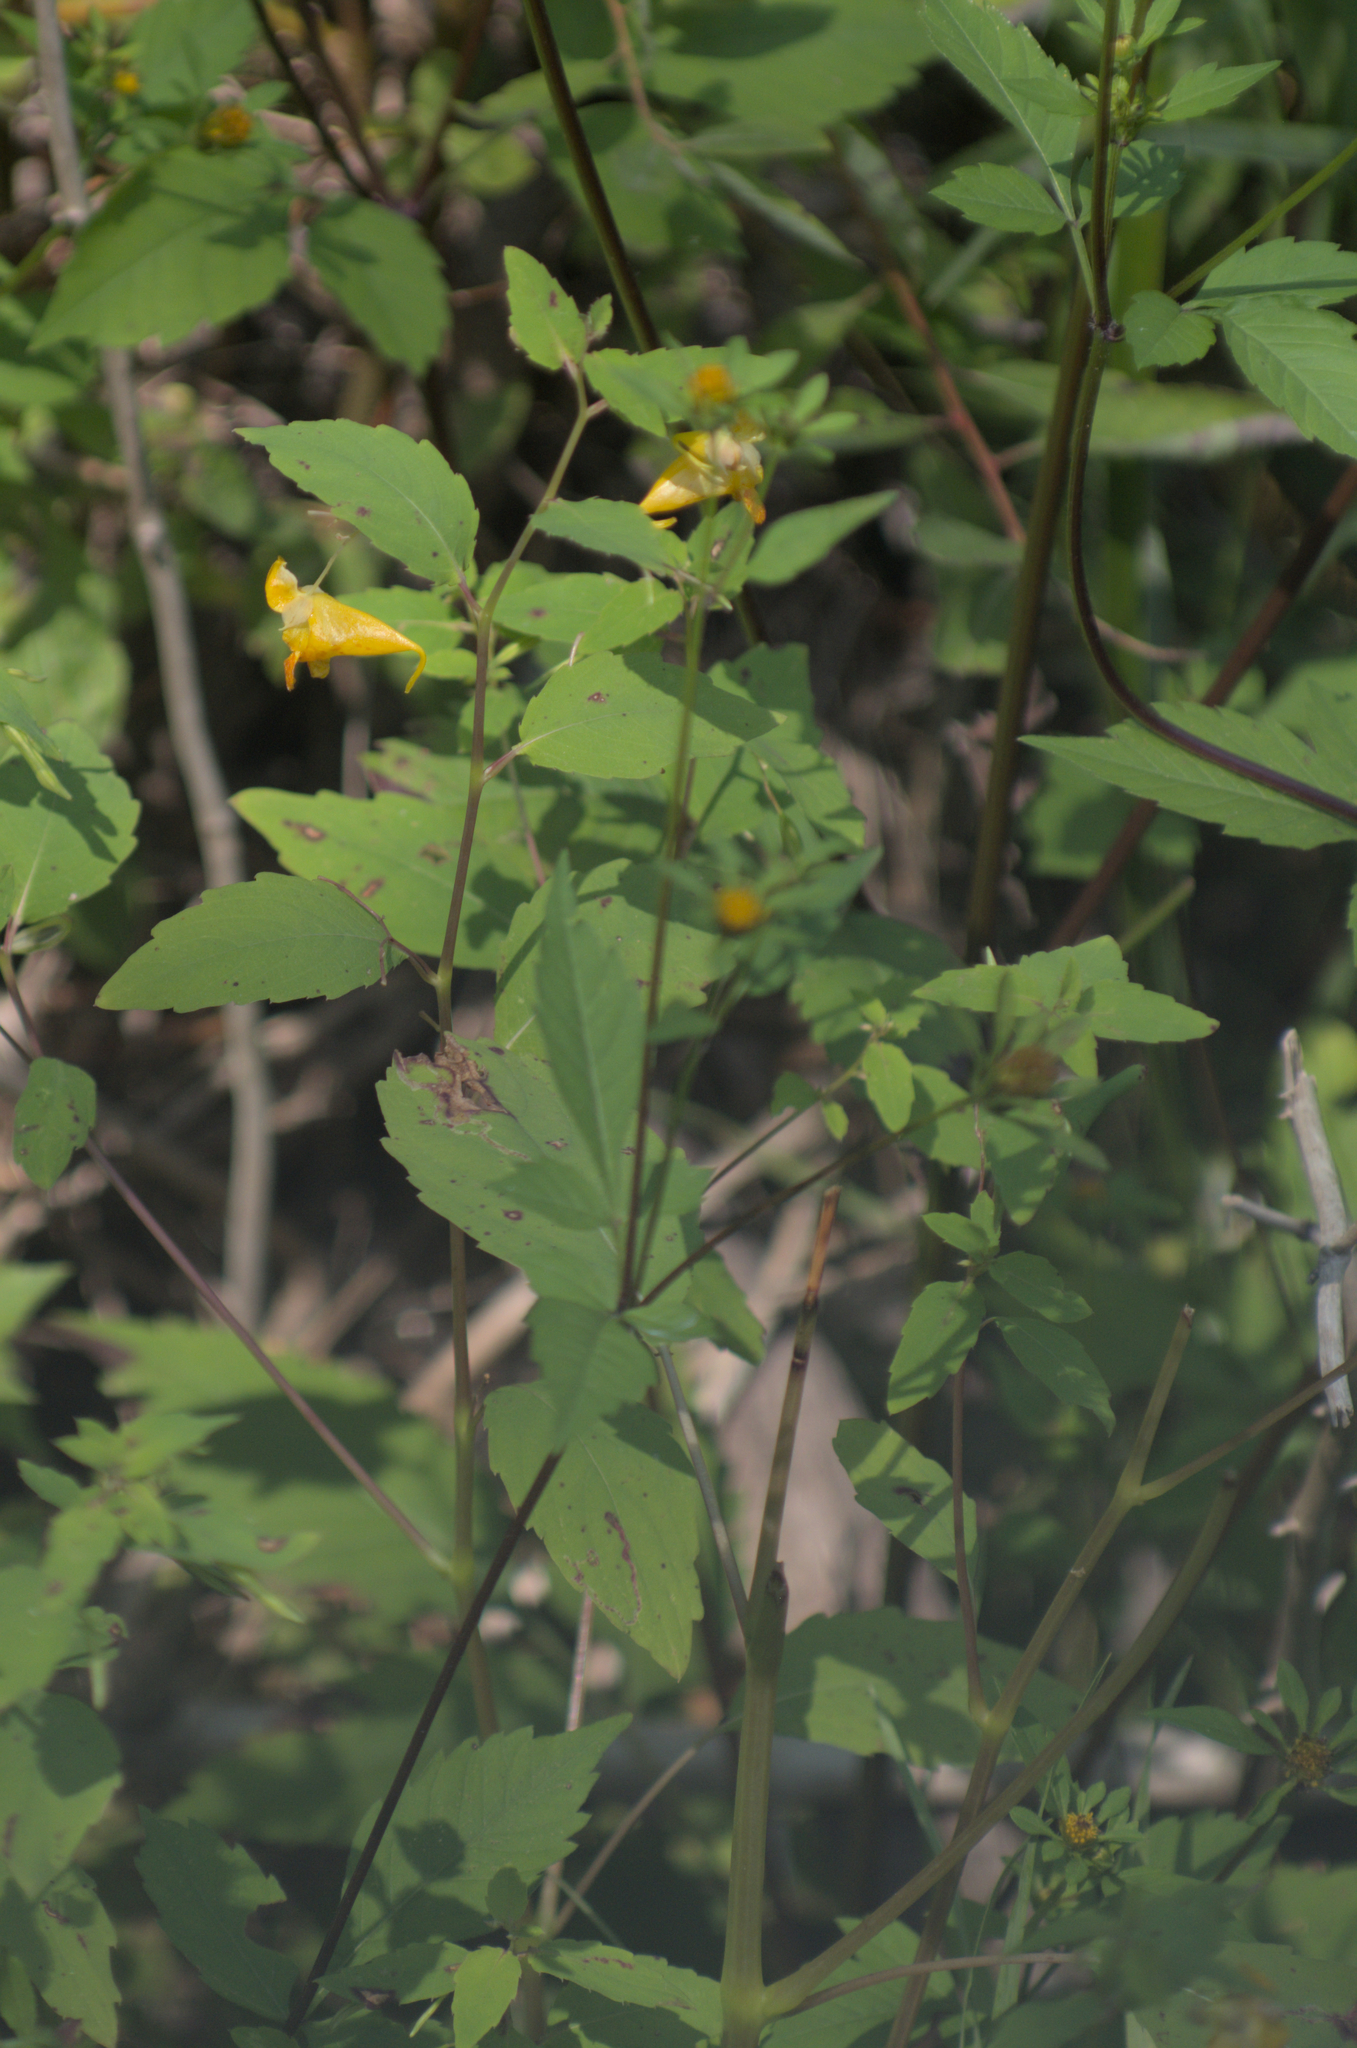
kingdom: Plantae
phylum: Tracheophyta
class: Magnoliopsida
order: Ericales
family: Balsaminaceae
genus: Impatiens
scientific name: Impatiens capensis
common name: Orange balsam
